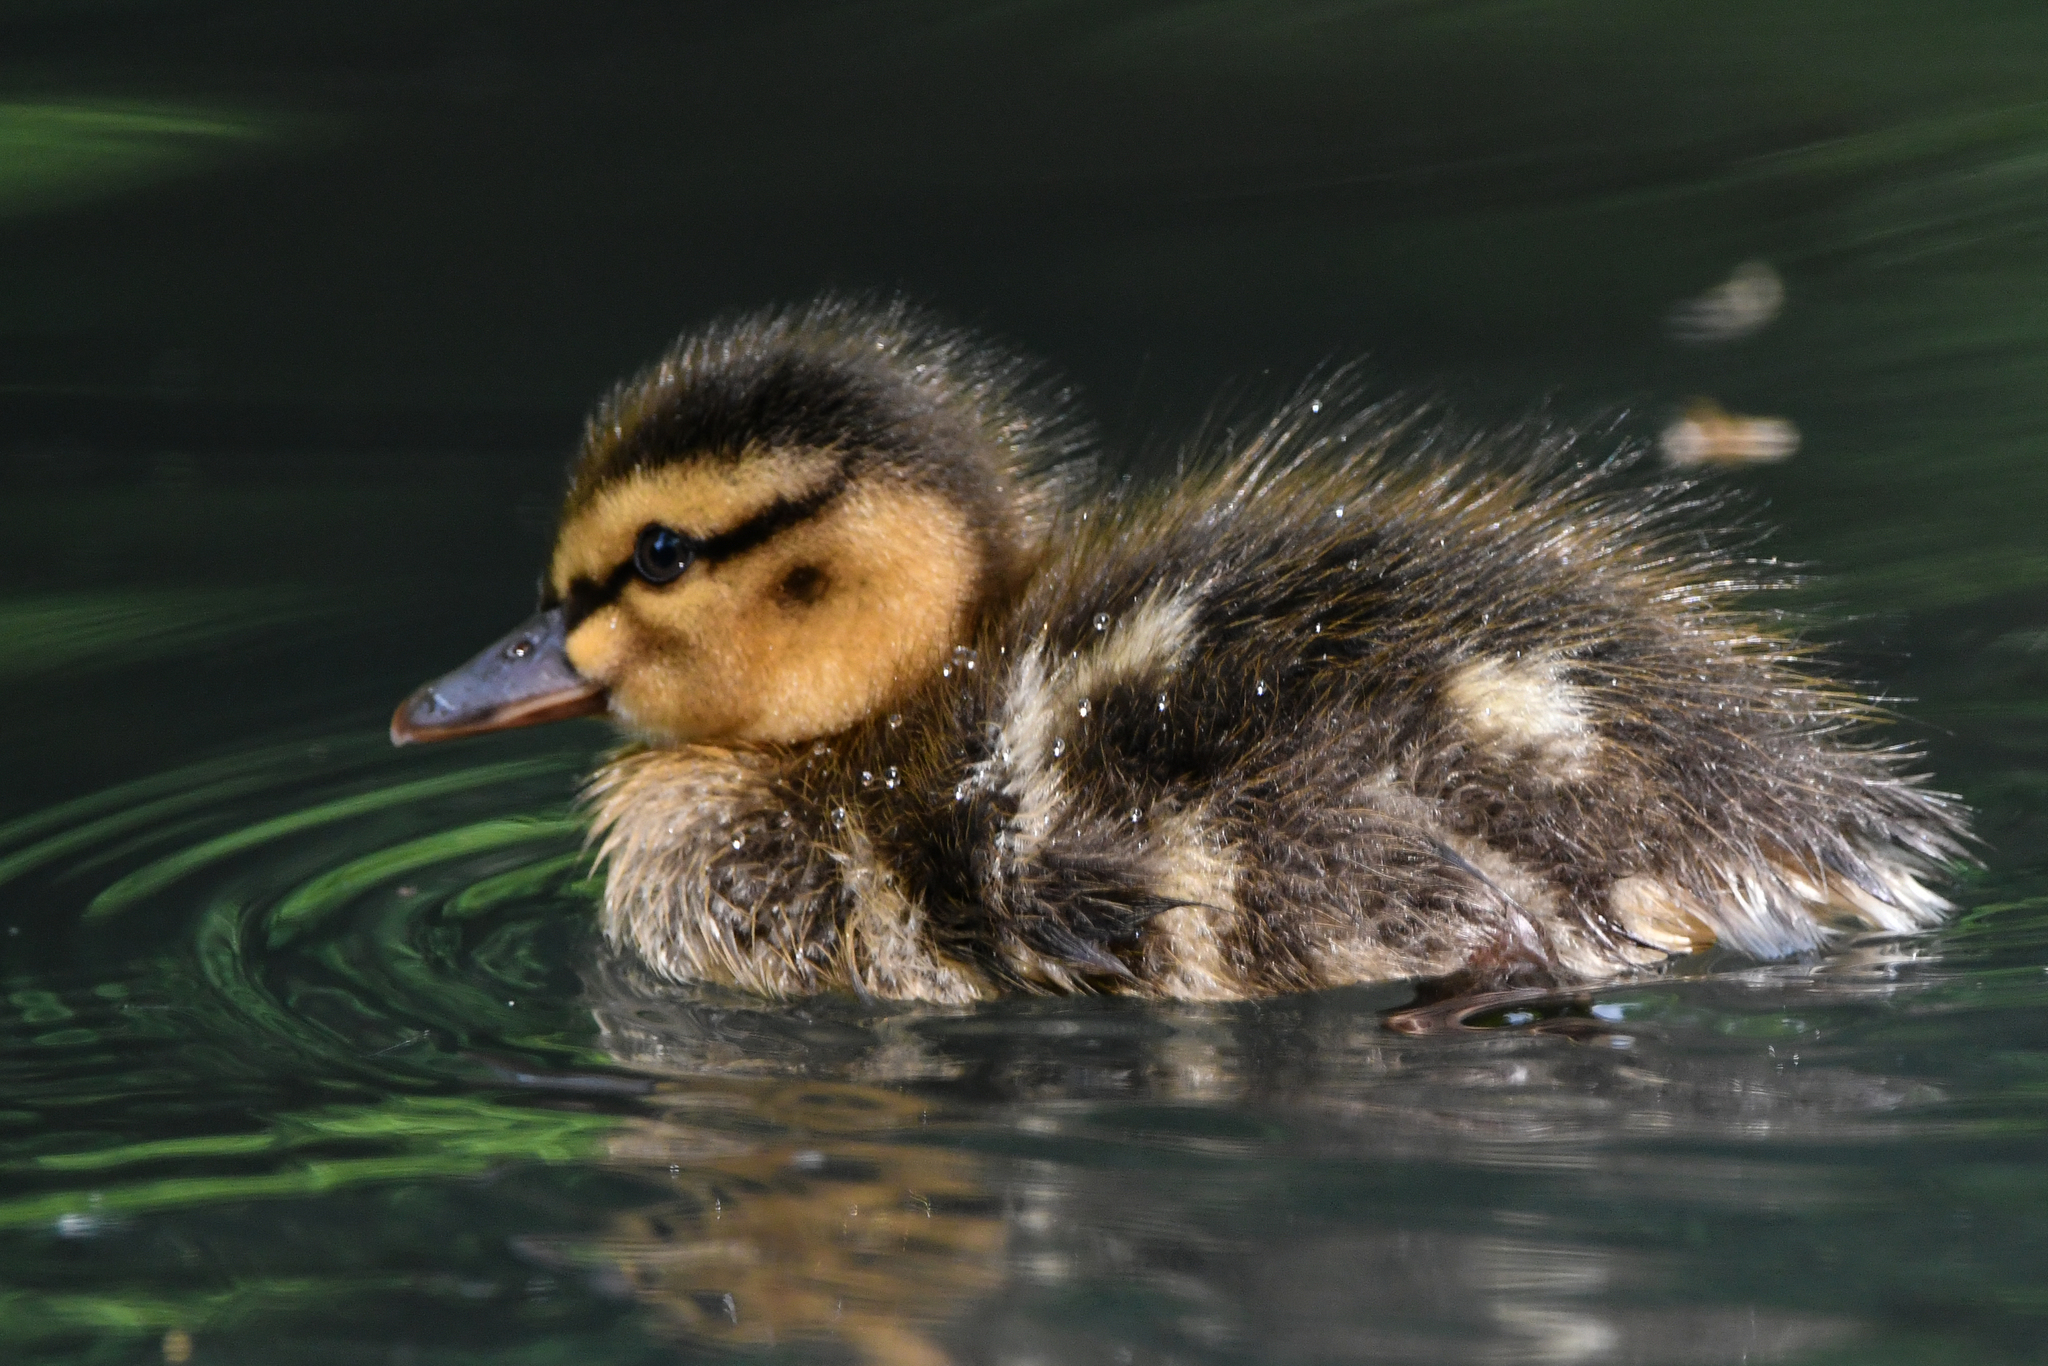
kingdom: Animalia
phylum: Chordata
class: Aves
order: Anseriformes
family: Anatidae
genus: Anas
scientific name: Anas platyrhynchos
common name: Mallard
